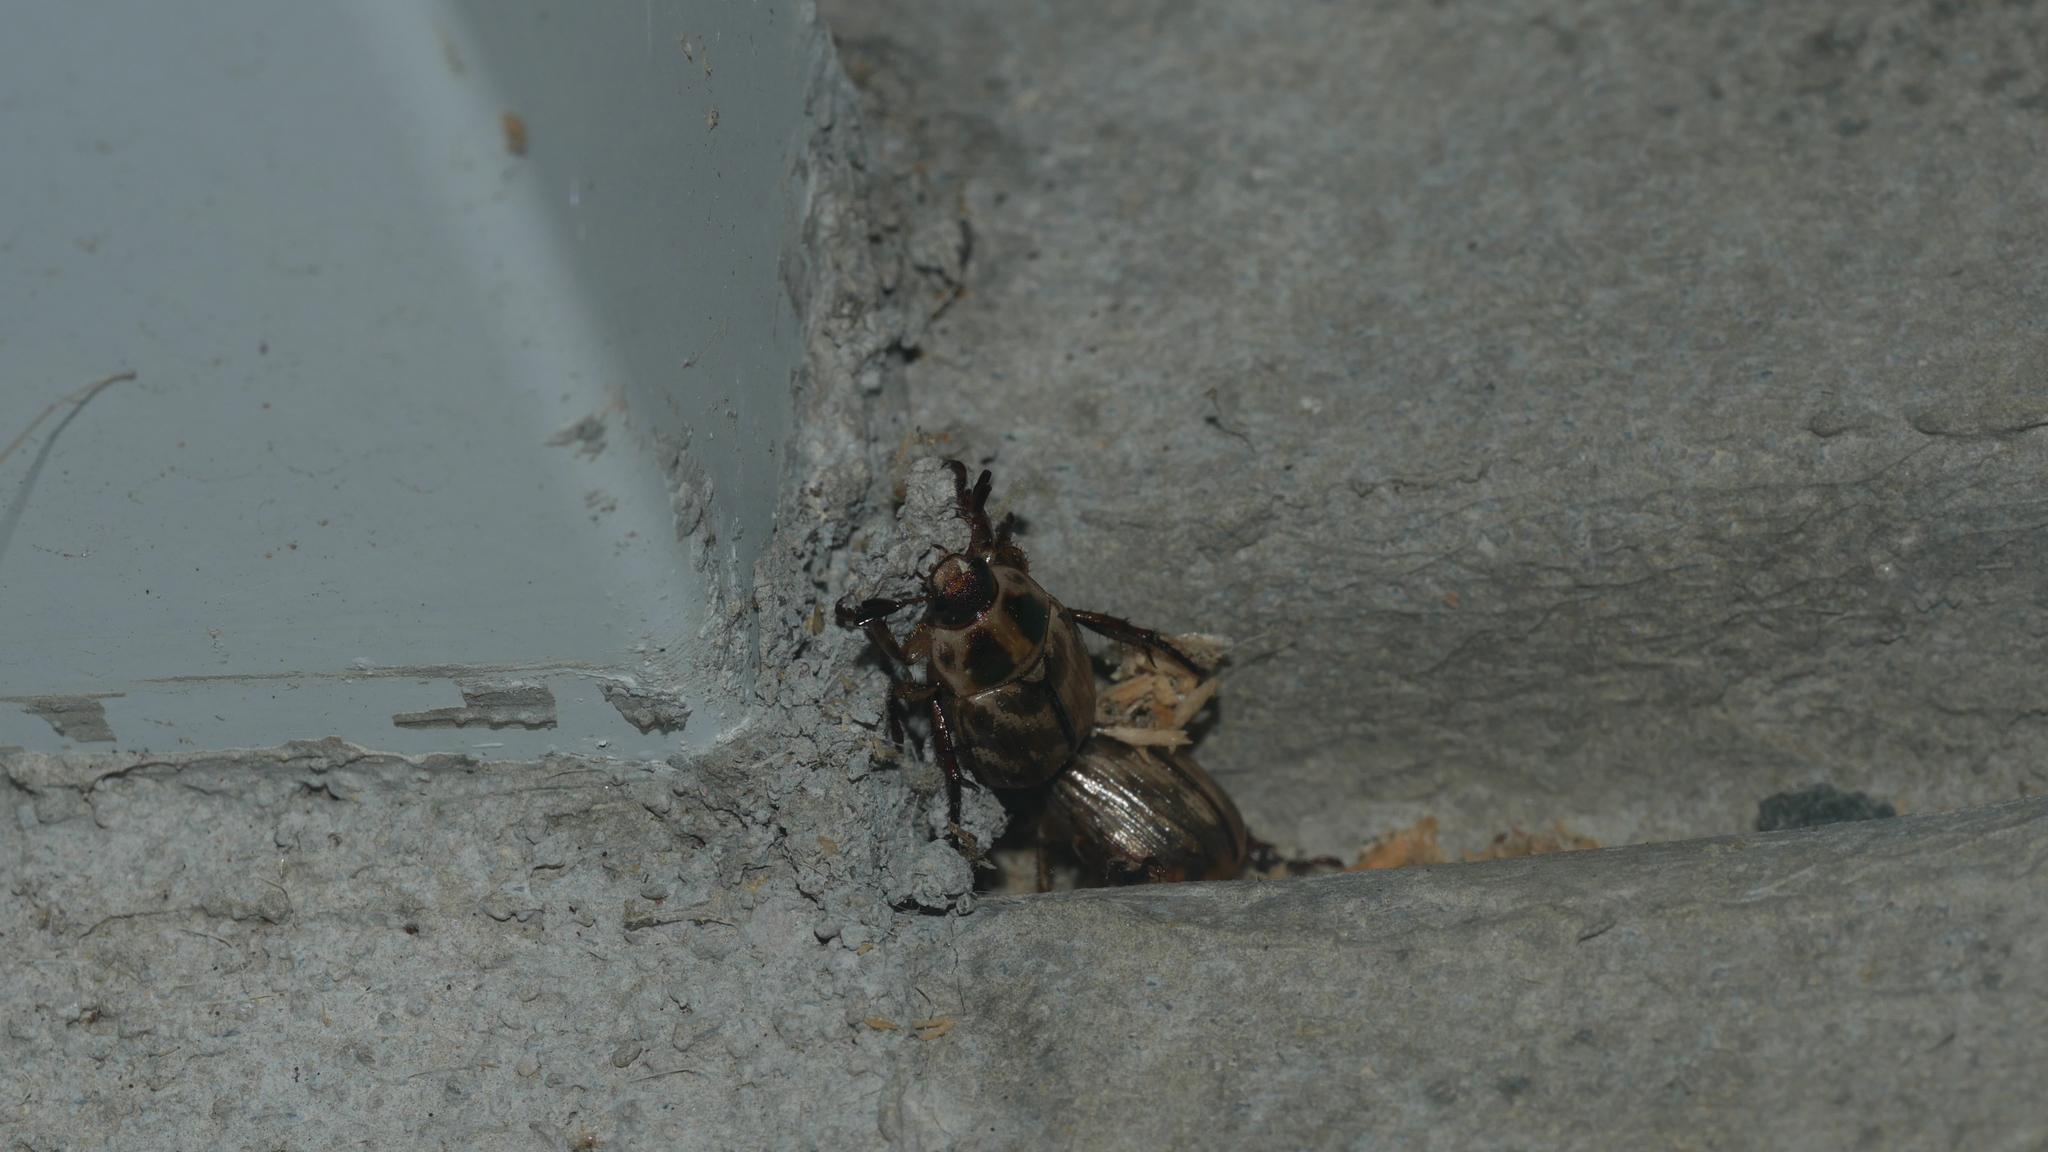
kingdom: Animalia
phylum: Arthropoda
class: Insecta
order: Coleoptera
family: Scarabaeidae
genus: Exomala
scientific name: Exomala orientalis
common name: Oriental beetle
